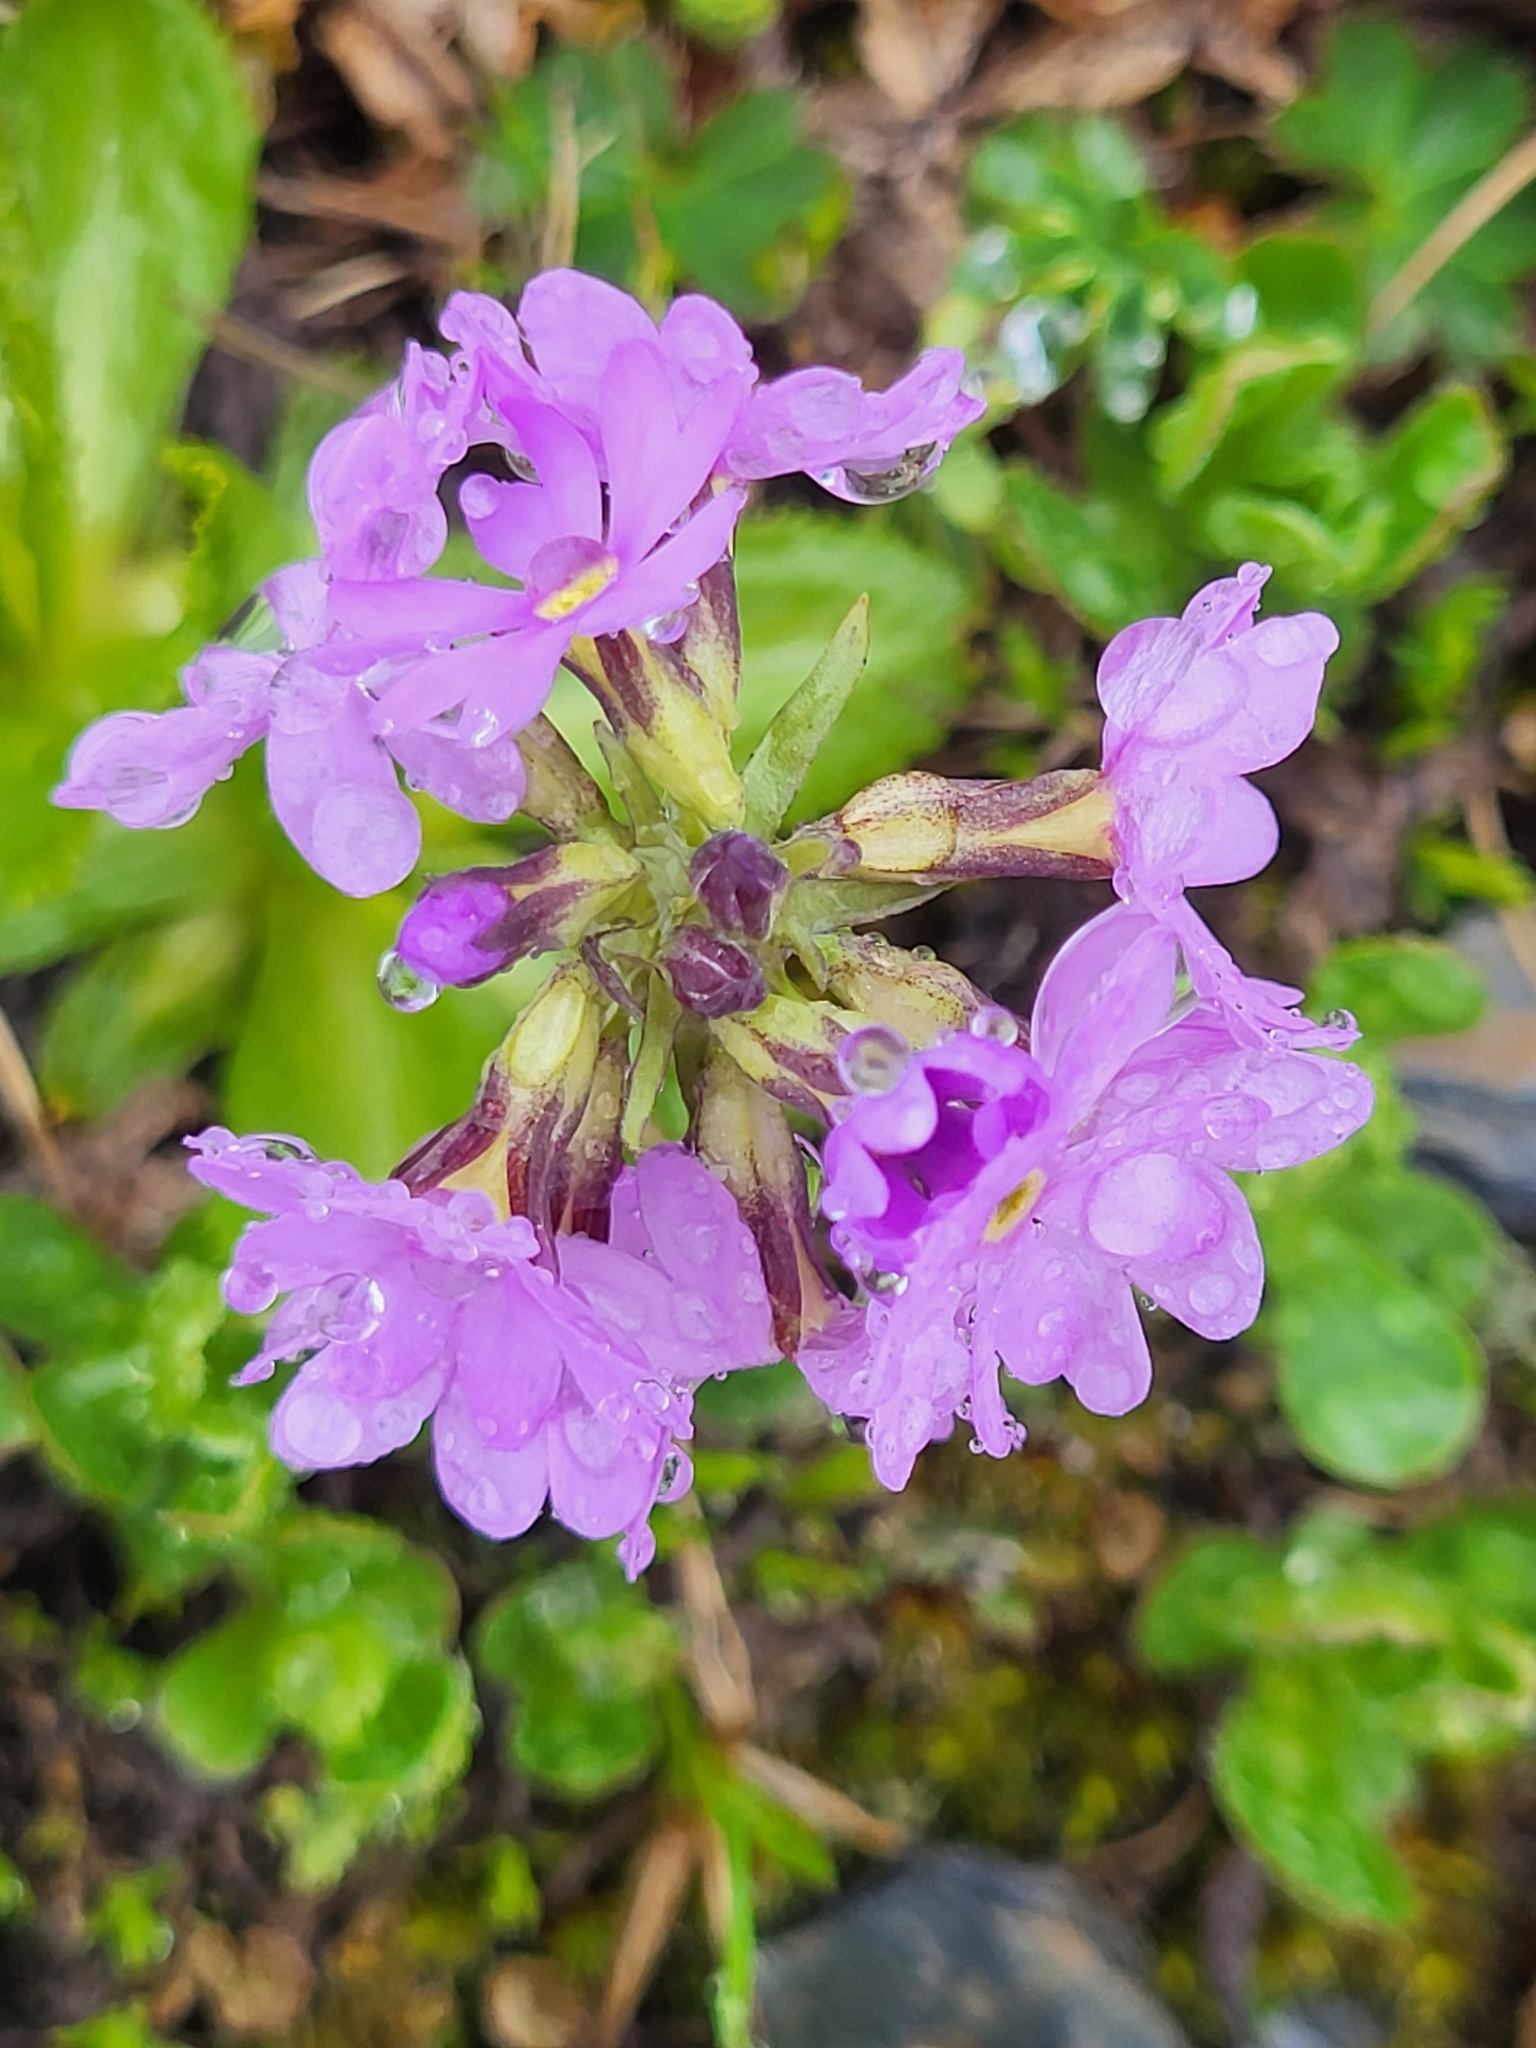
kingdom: Plantae
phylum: Tracheophyta
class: Magnoliopsida
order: Ericales
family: Primulaceae
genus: Primula
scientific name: Primula algida
